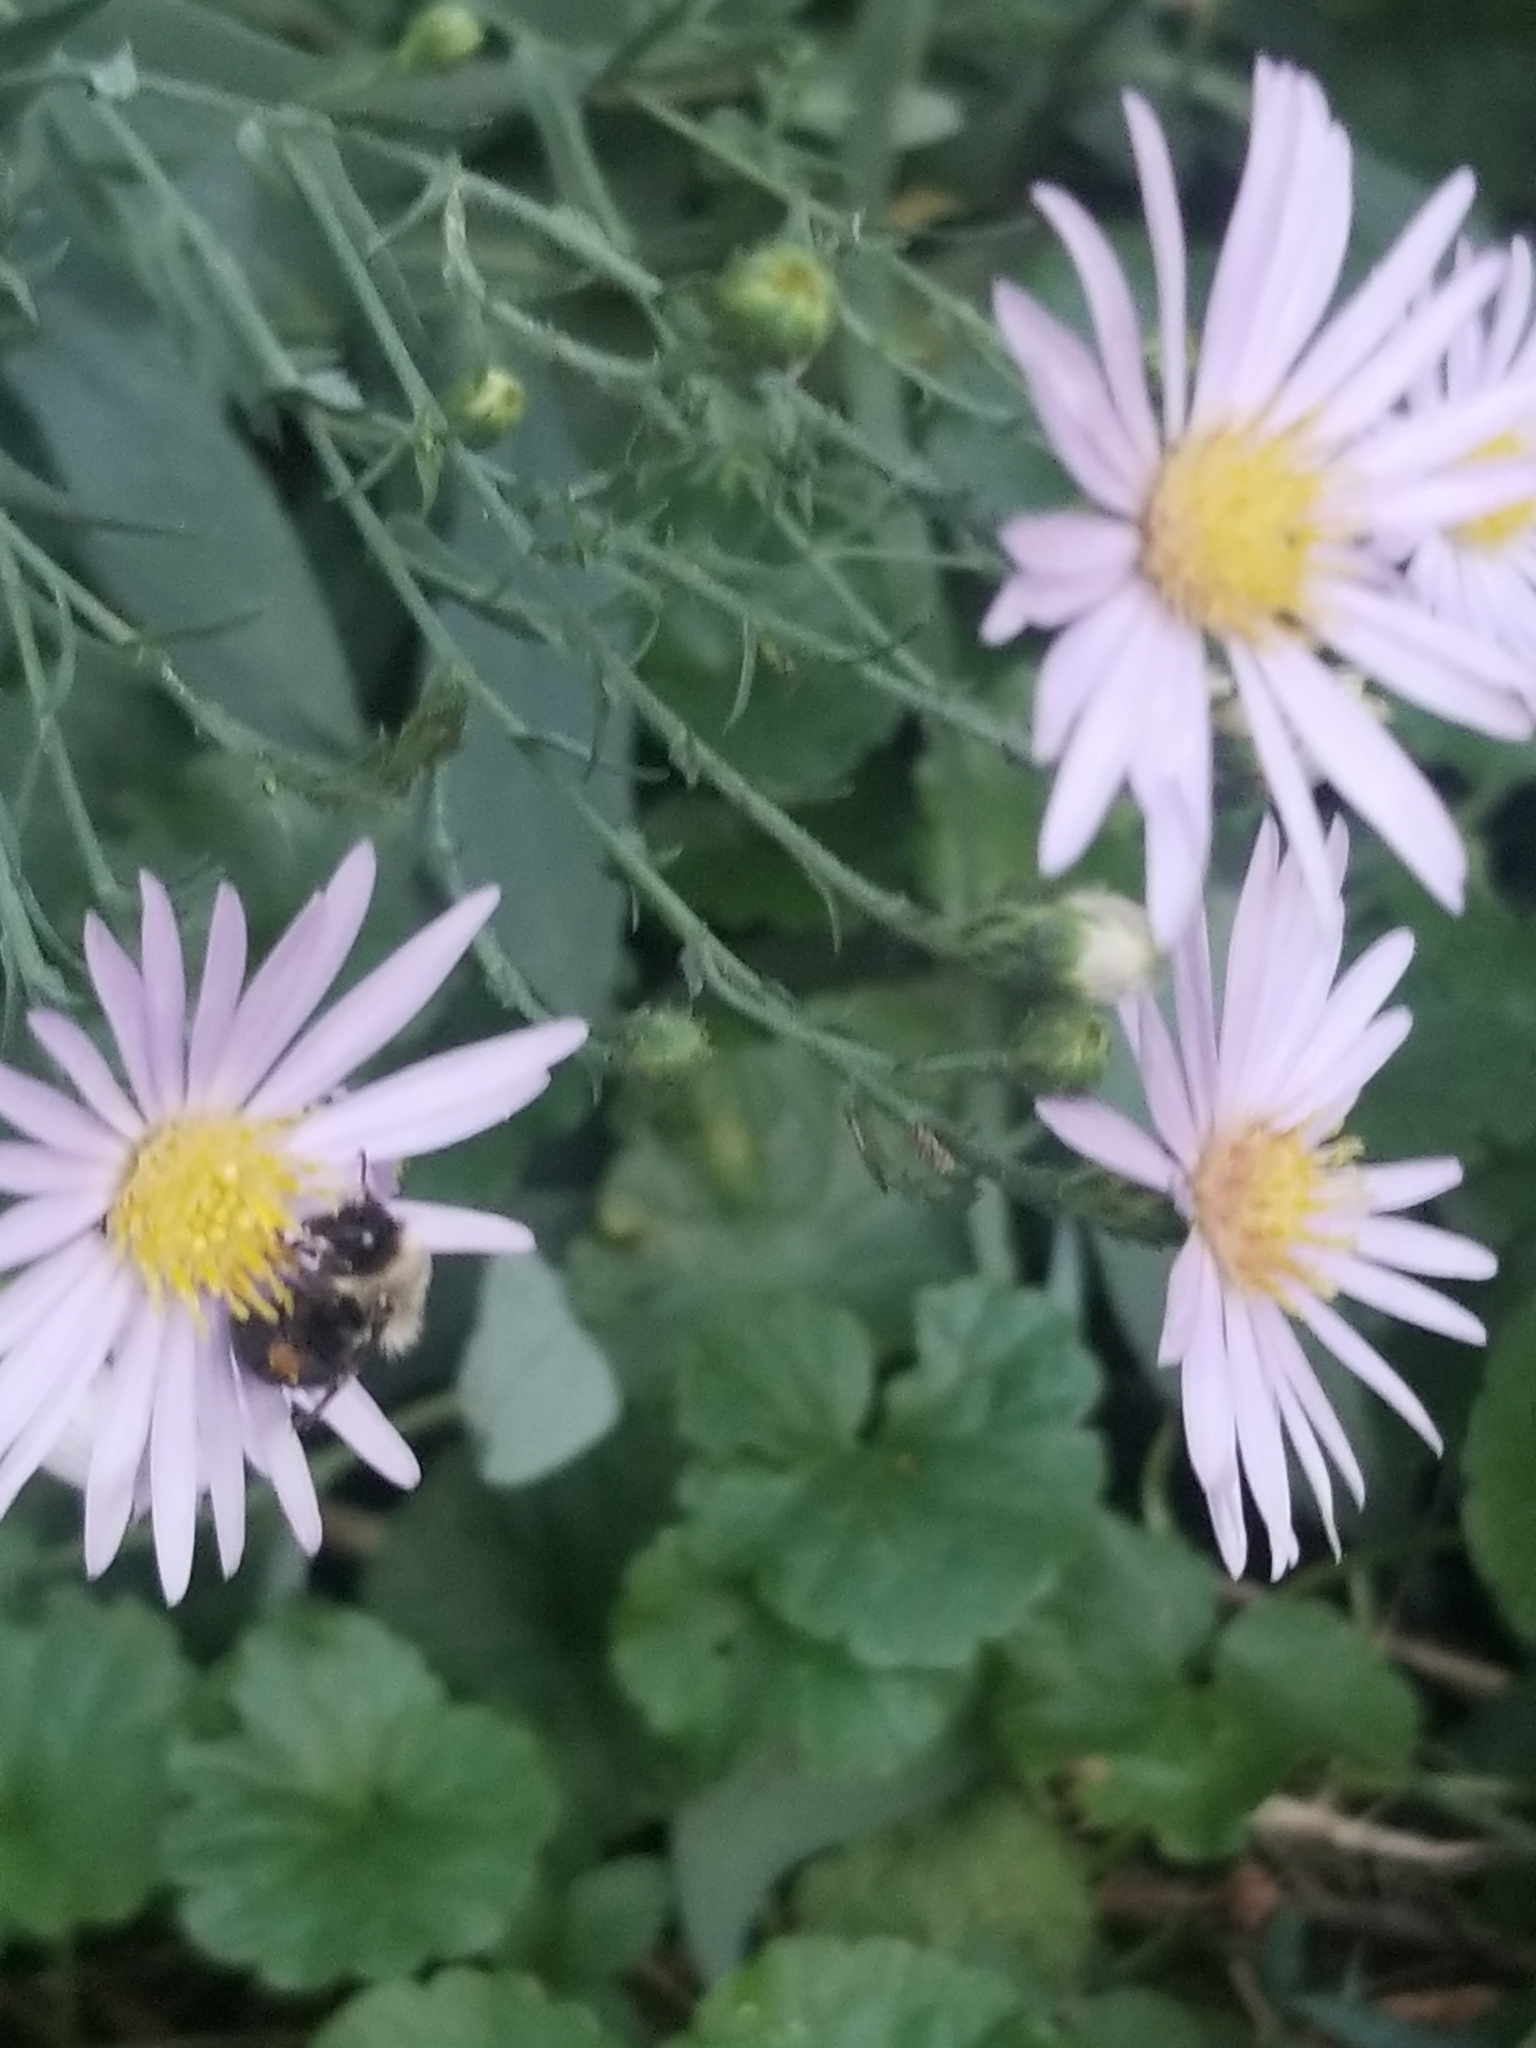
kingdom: Animalia
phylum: Arthropoda
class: Insecta
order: Hymenoptera
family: Apidae
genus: Bombus
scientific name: Bombus impatiens
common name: Common eastern bumble bee
